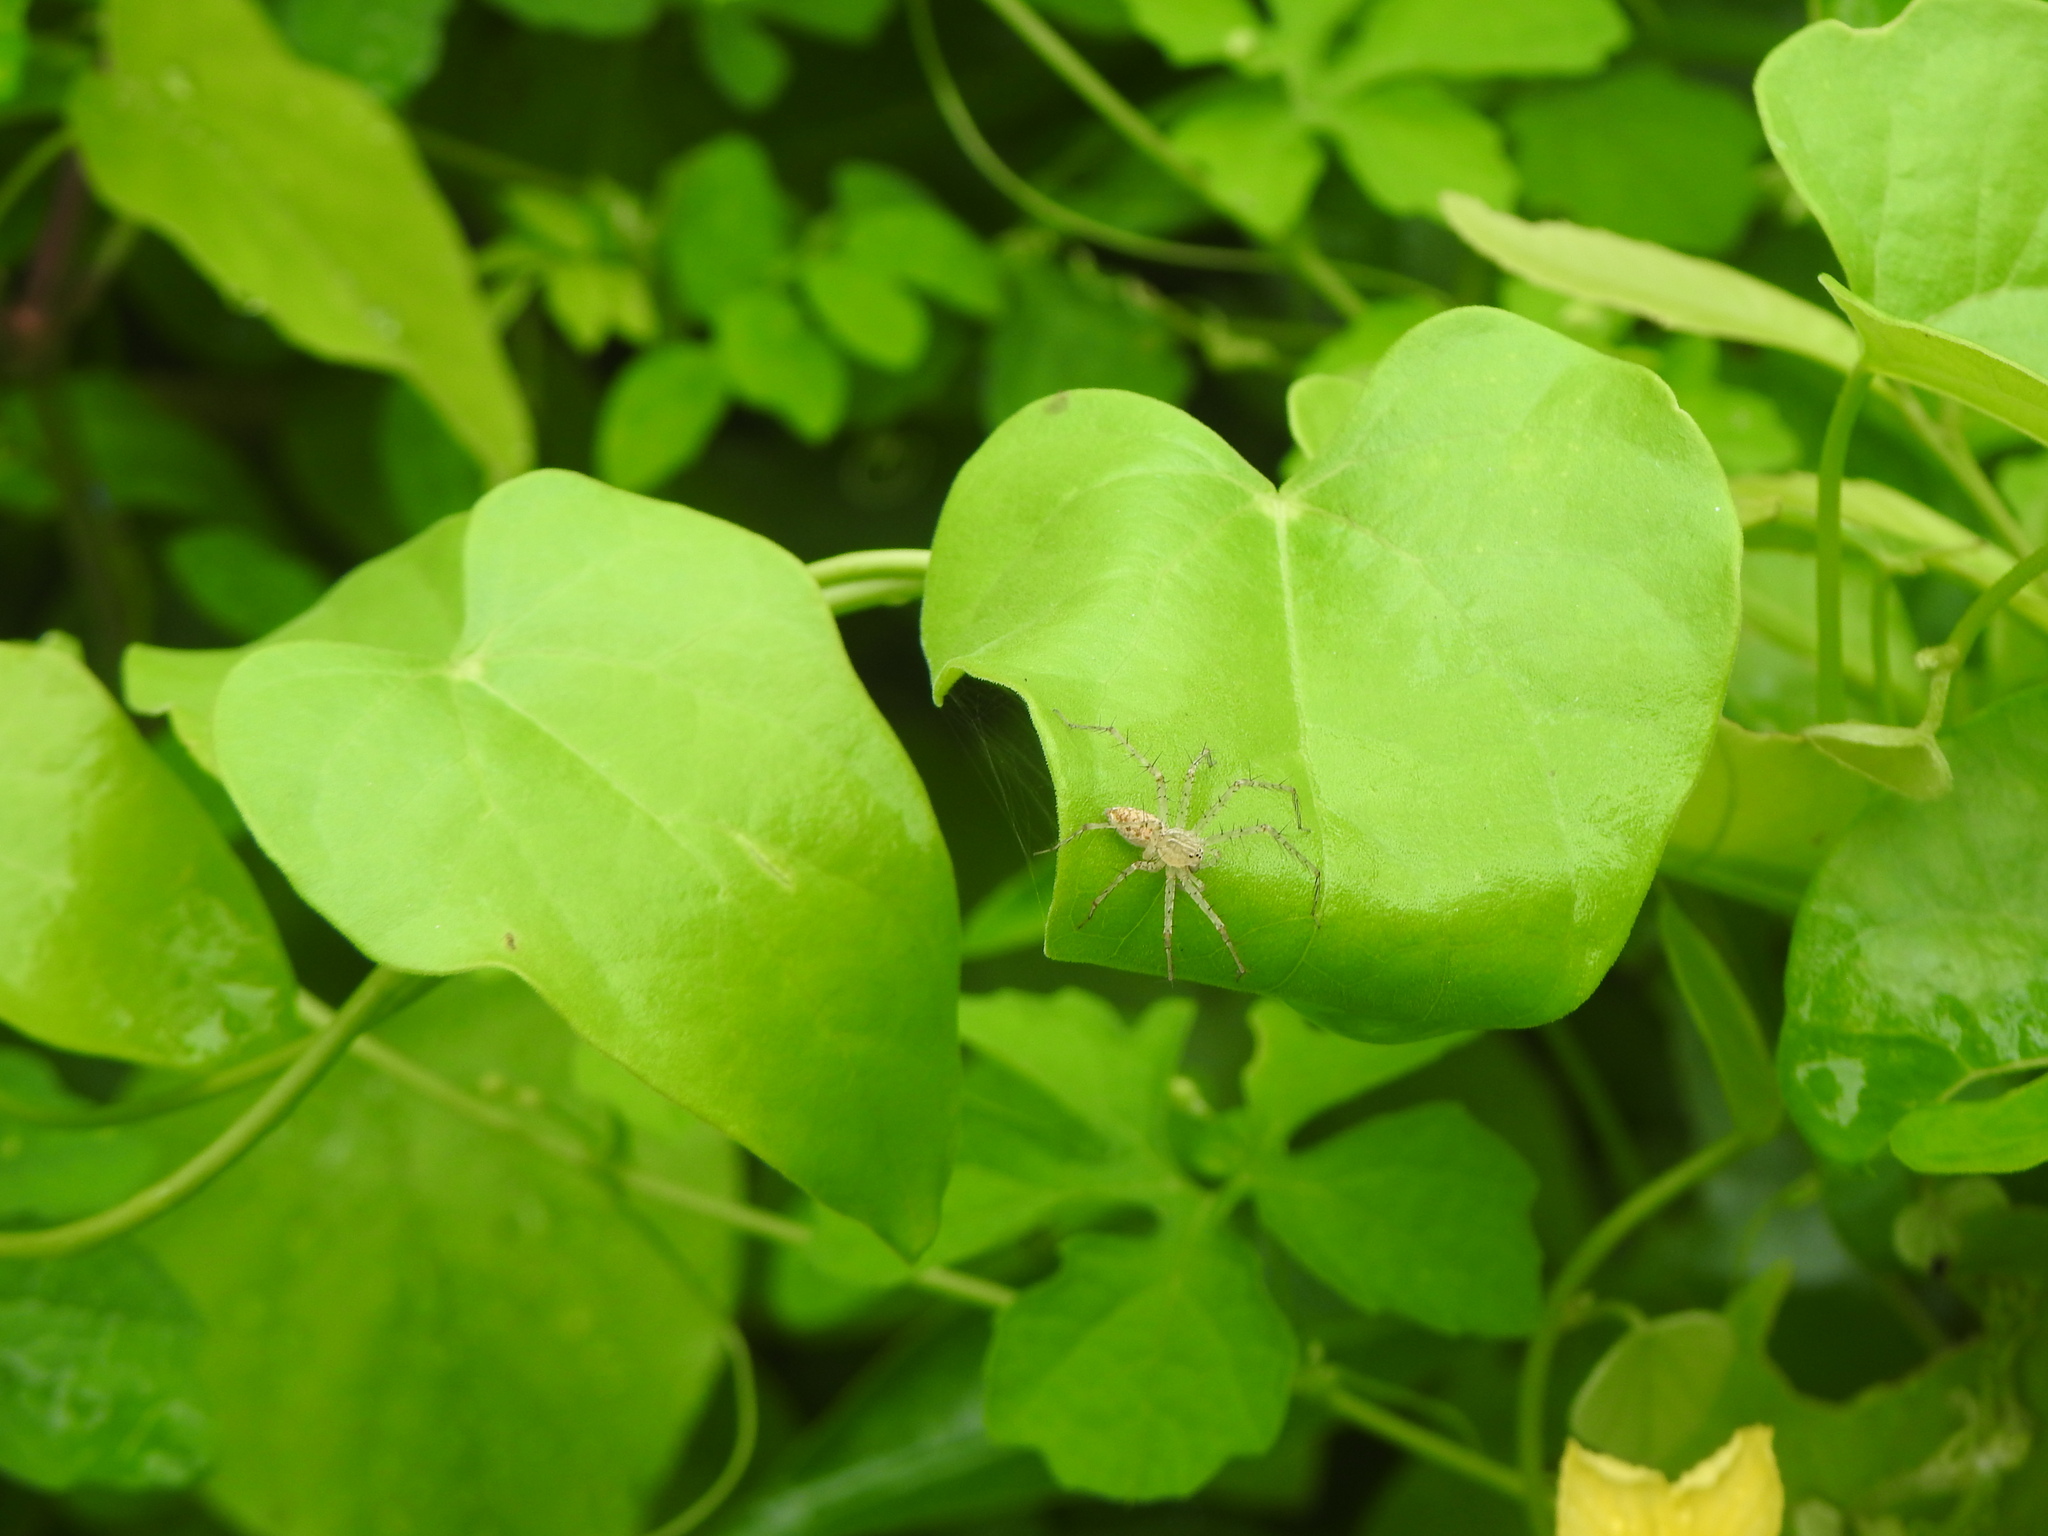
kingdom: Plantae
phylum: Tracheophyta
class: Magnoliopsida
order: Cucurbitales
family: Cucurbitaceae
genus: Momordica
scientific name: Momordica charantia
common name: Balsampear
